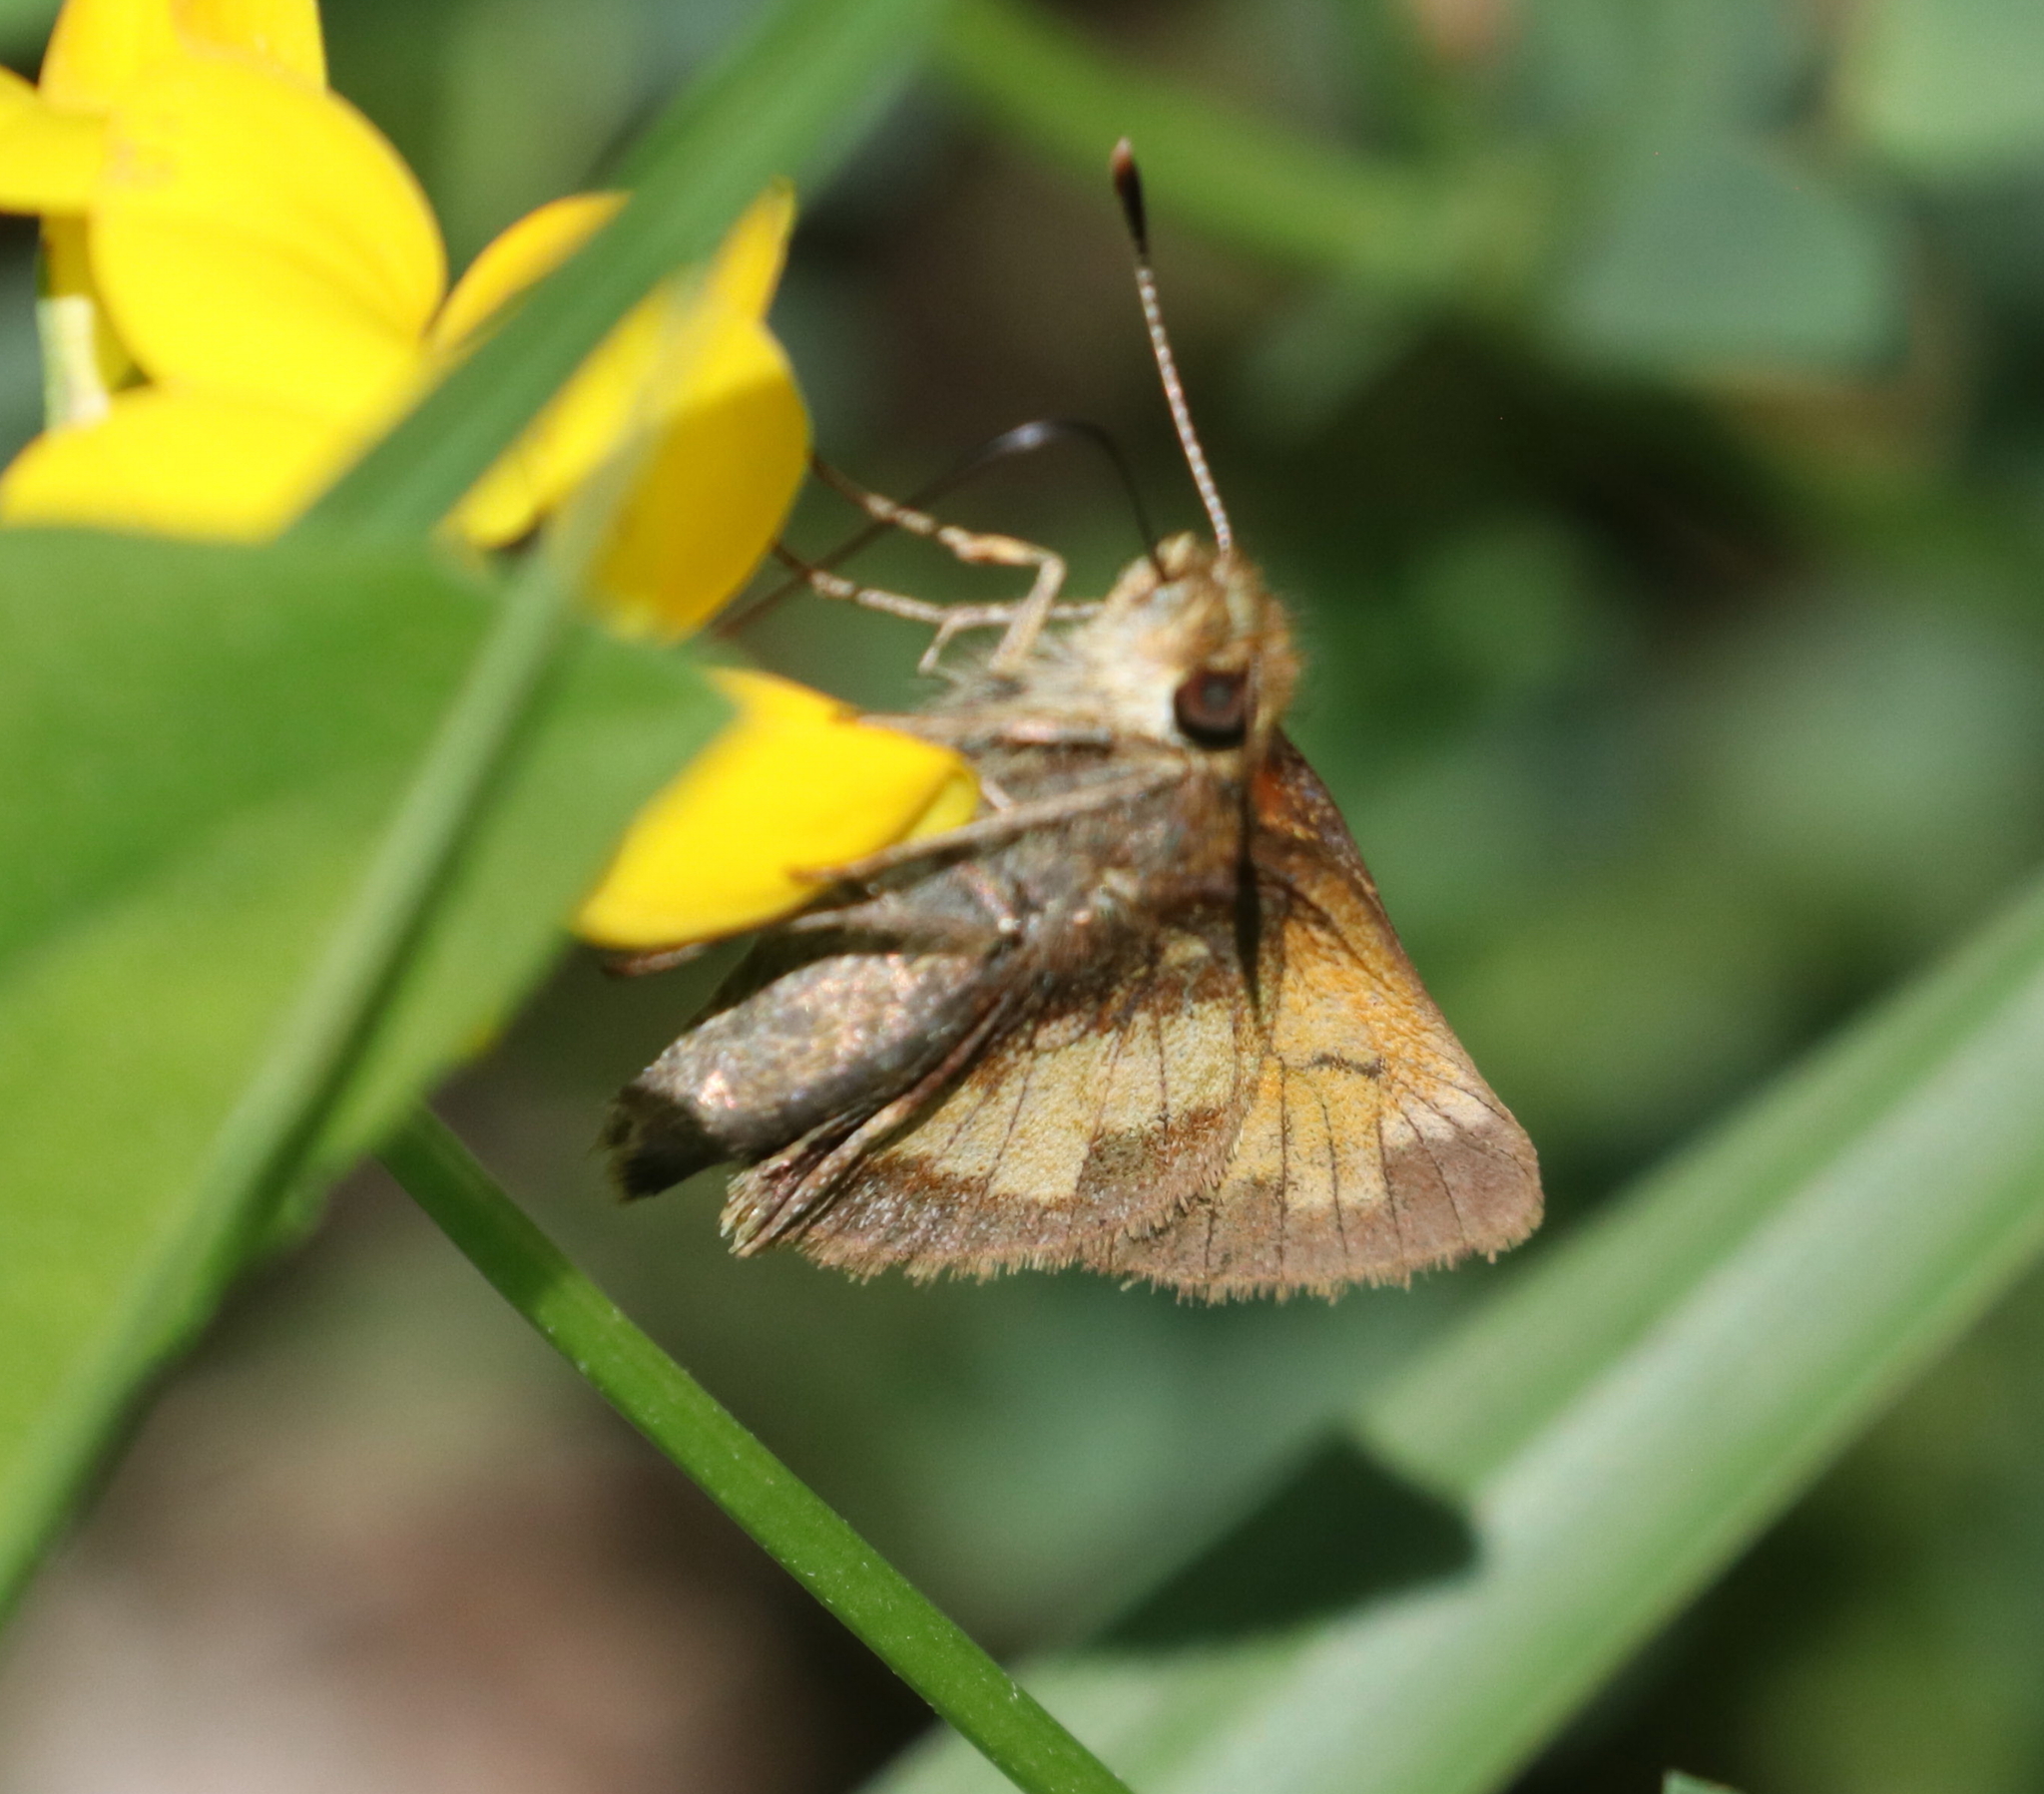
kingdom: Animalia
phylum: Arthropoda
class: Insecta
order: Lepidoptera
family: Hesperiidae
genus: Lon
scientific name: Lon hobomok
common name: Hobomok skipper
